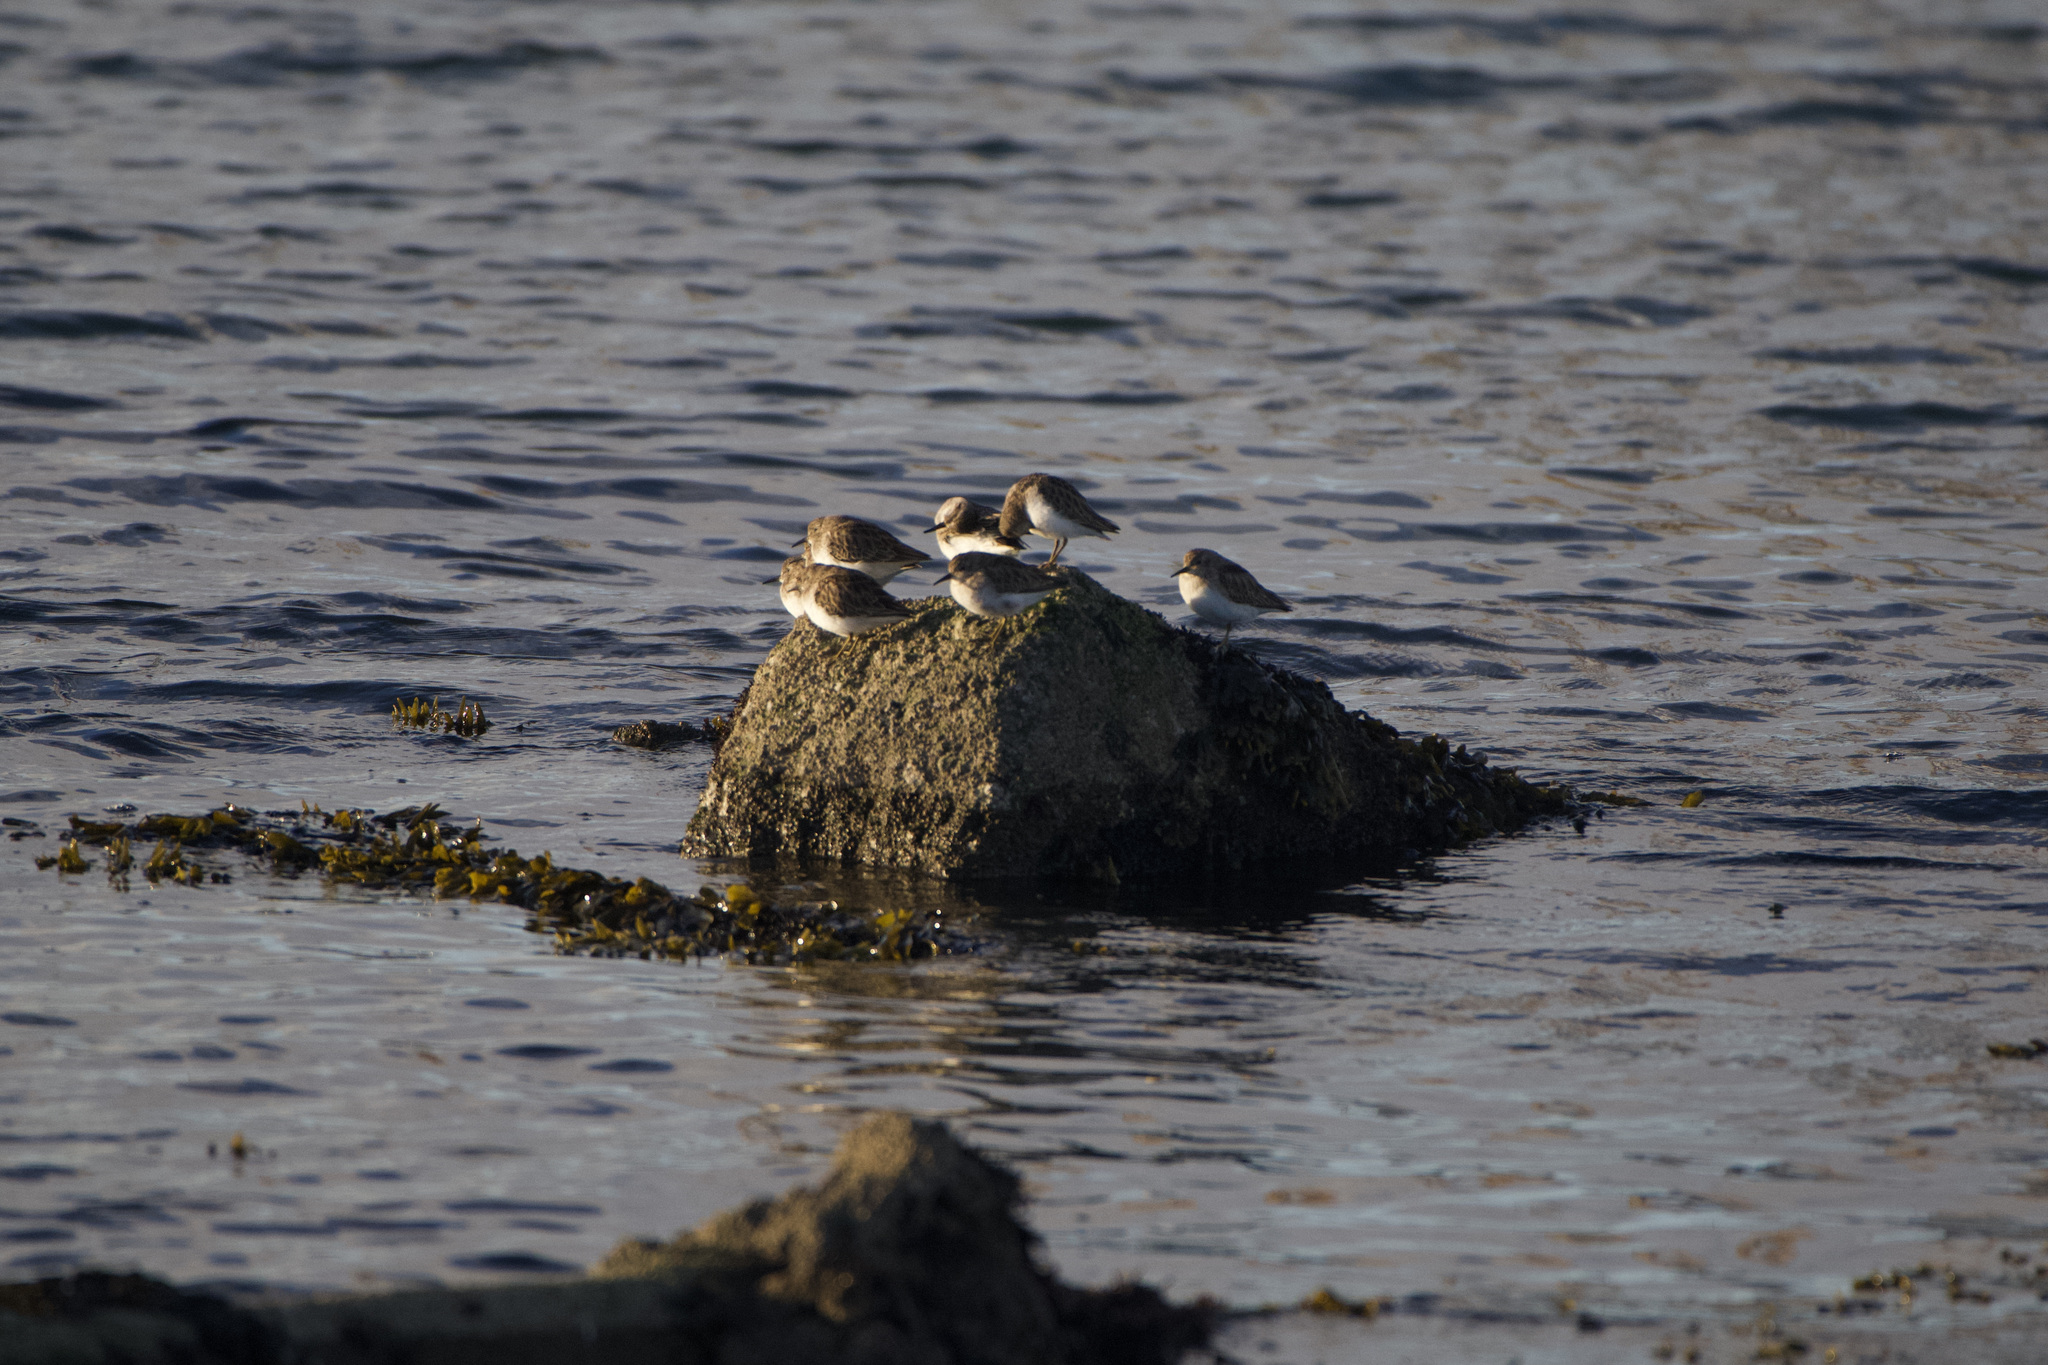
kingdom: Animalia
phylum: Chordata
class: Aves
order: Charadriiformes
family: Scolopacidae
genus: Calidris
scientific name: Calidris minutilla
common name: Least sandpiper
